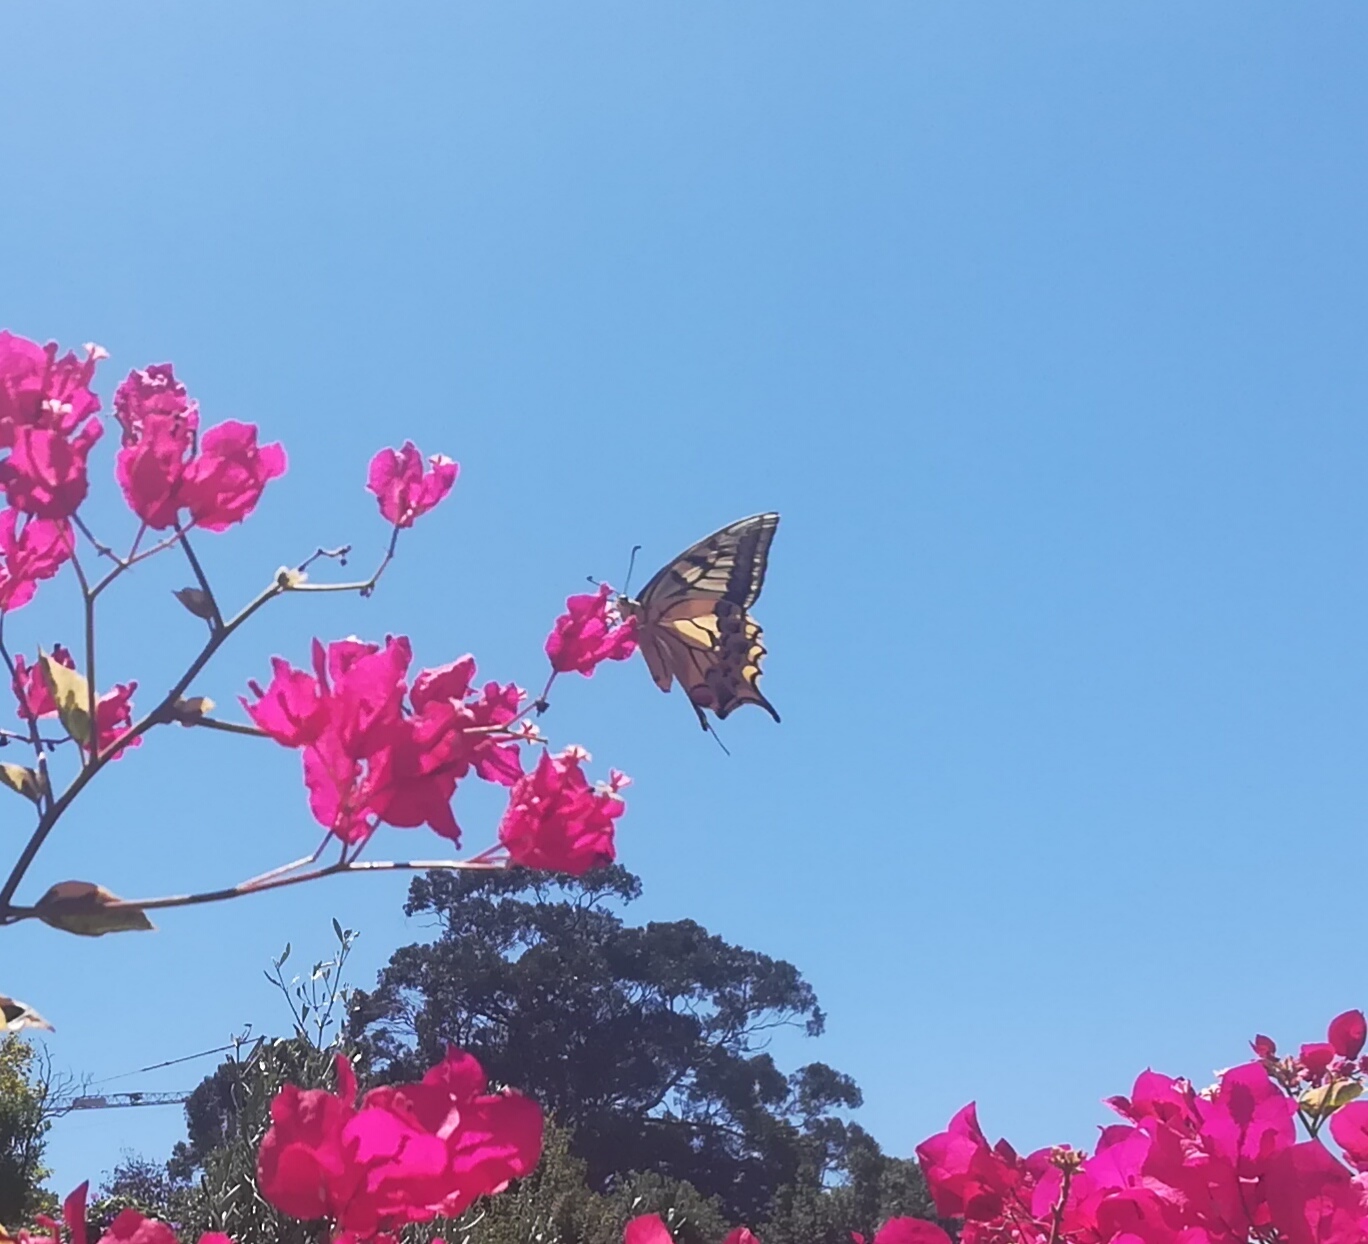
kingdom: Animalia
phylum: Arthropoda
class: Insecta
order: Lepidoptera
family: Papilionidae
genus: Papilio
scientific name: Papilio machaon
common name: Swallowtail
